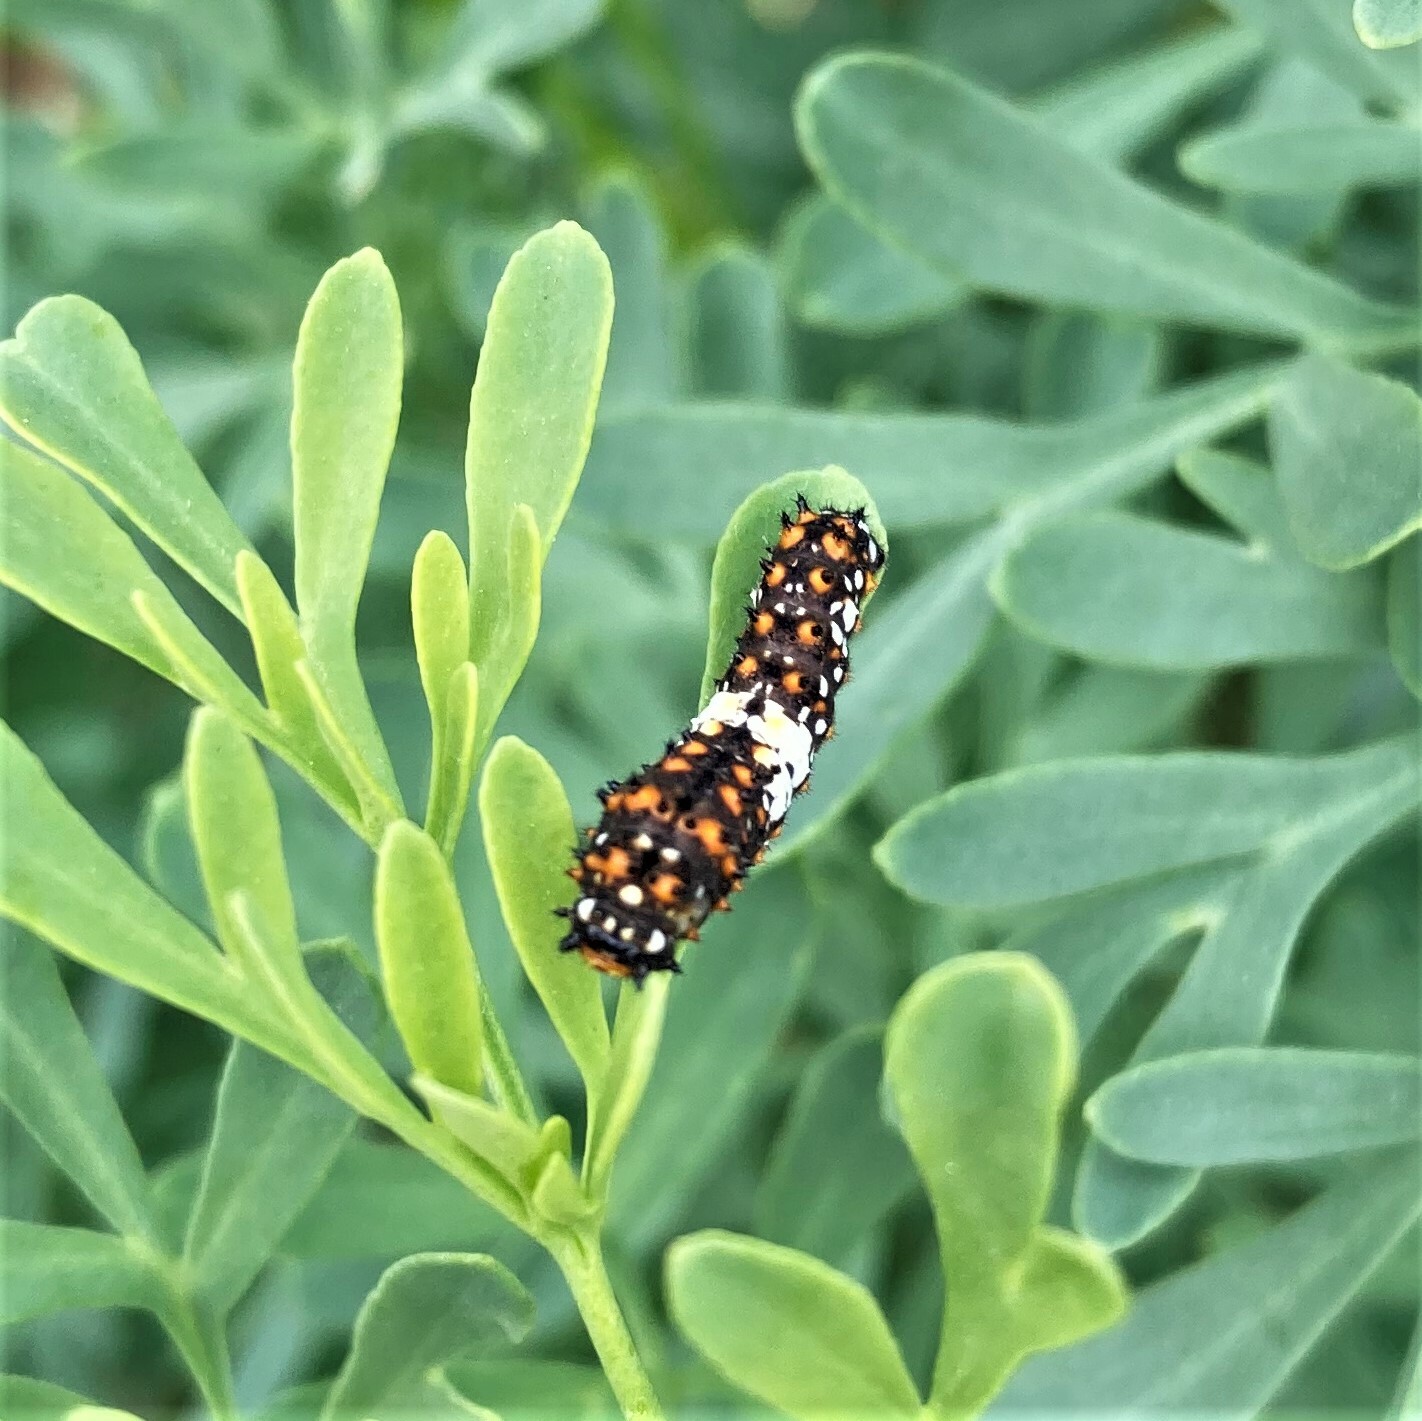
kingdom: Animalia
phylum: Arthropoda
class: Insecta
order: Lepidoptera
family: Papilionidae
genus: Papilio
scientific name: Papilio polyxenes
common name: Black swallowtail
